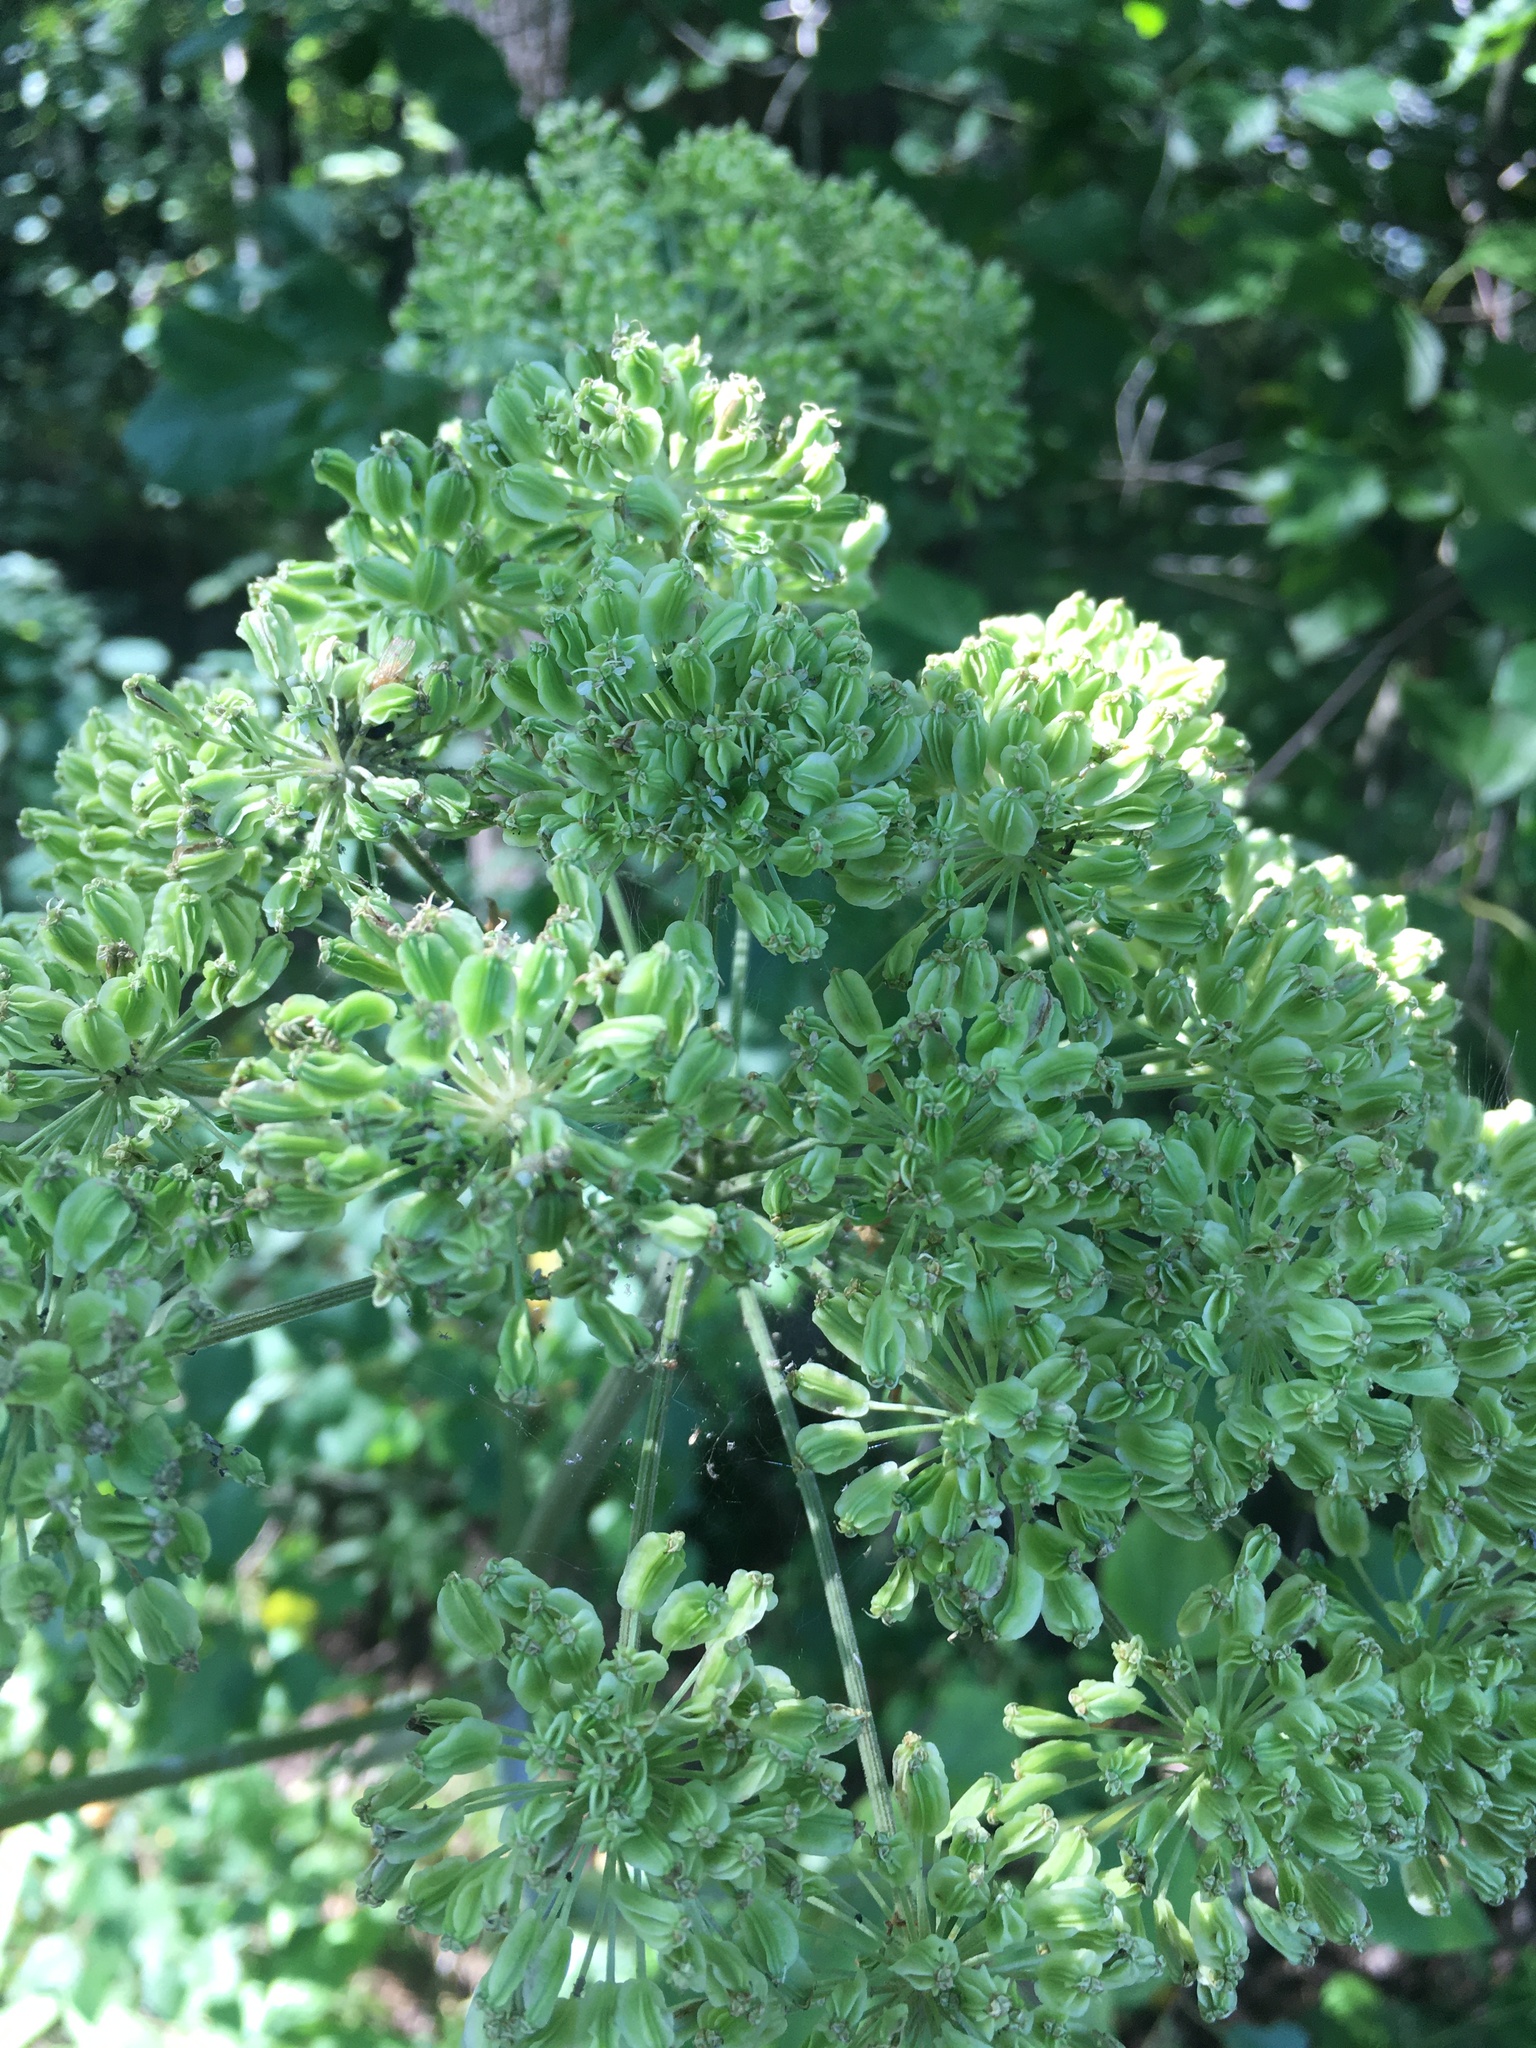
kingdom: Plantae
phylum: Tracheophyta
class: Magnoliopsida
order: Apiales
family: Apiaceae
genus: Angelica
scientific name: Angelica sylvestris
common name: Wild angelica
